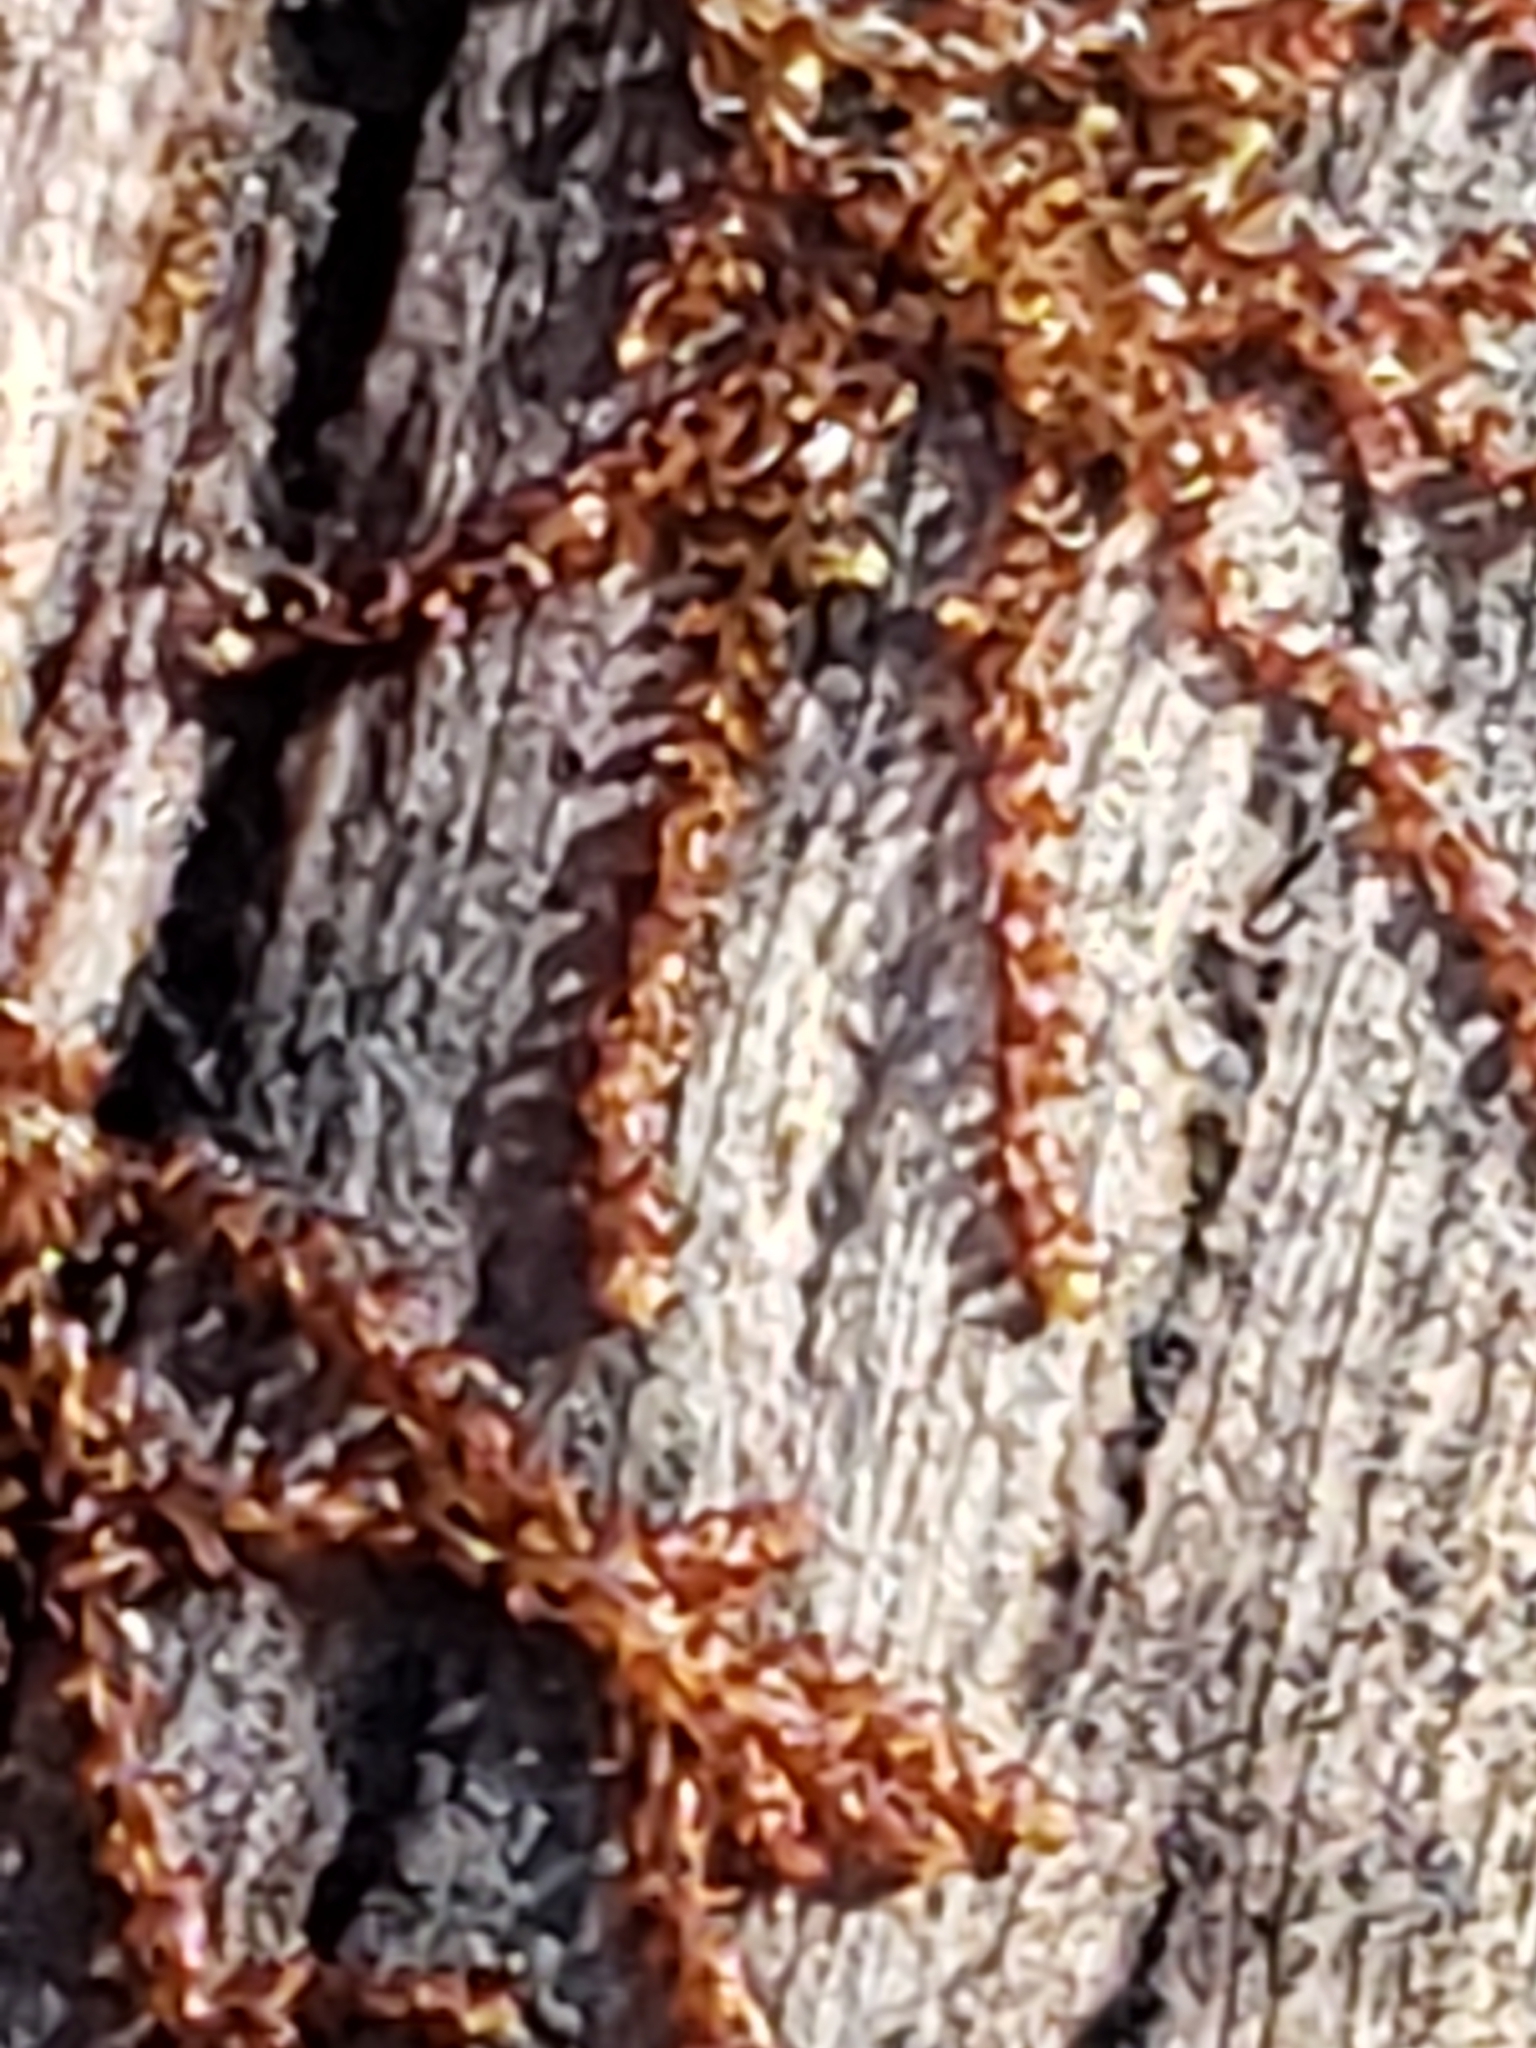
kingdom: Plantae
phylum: Marchantiophyta
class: Jungermanniopsida
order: Jungermanniales
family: Cephaloziaceae
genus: Nowellia
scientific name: Nowellia curvifolia
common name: Wood rustwort
